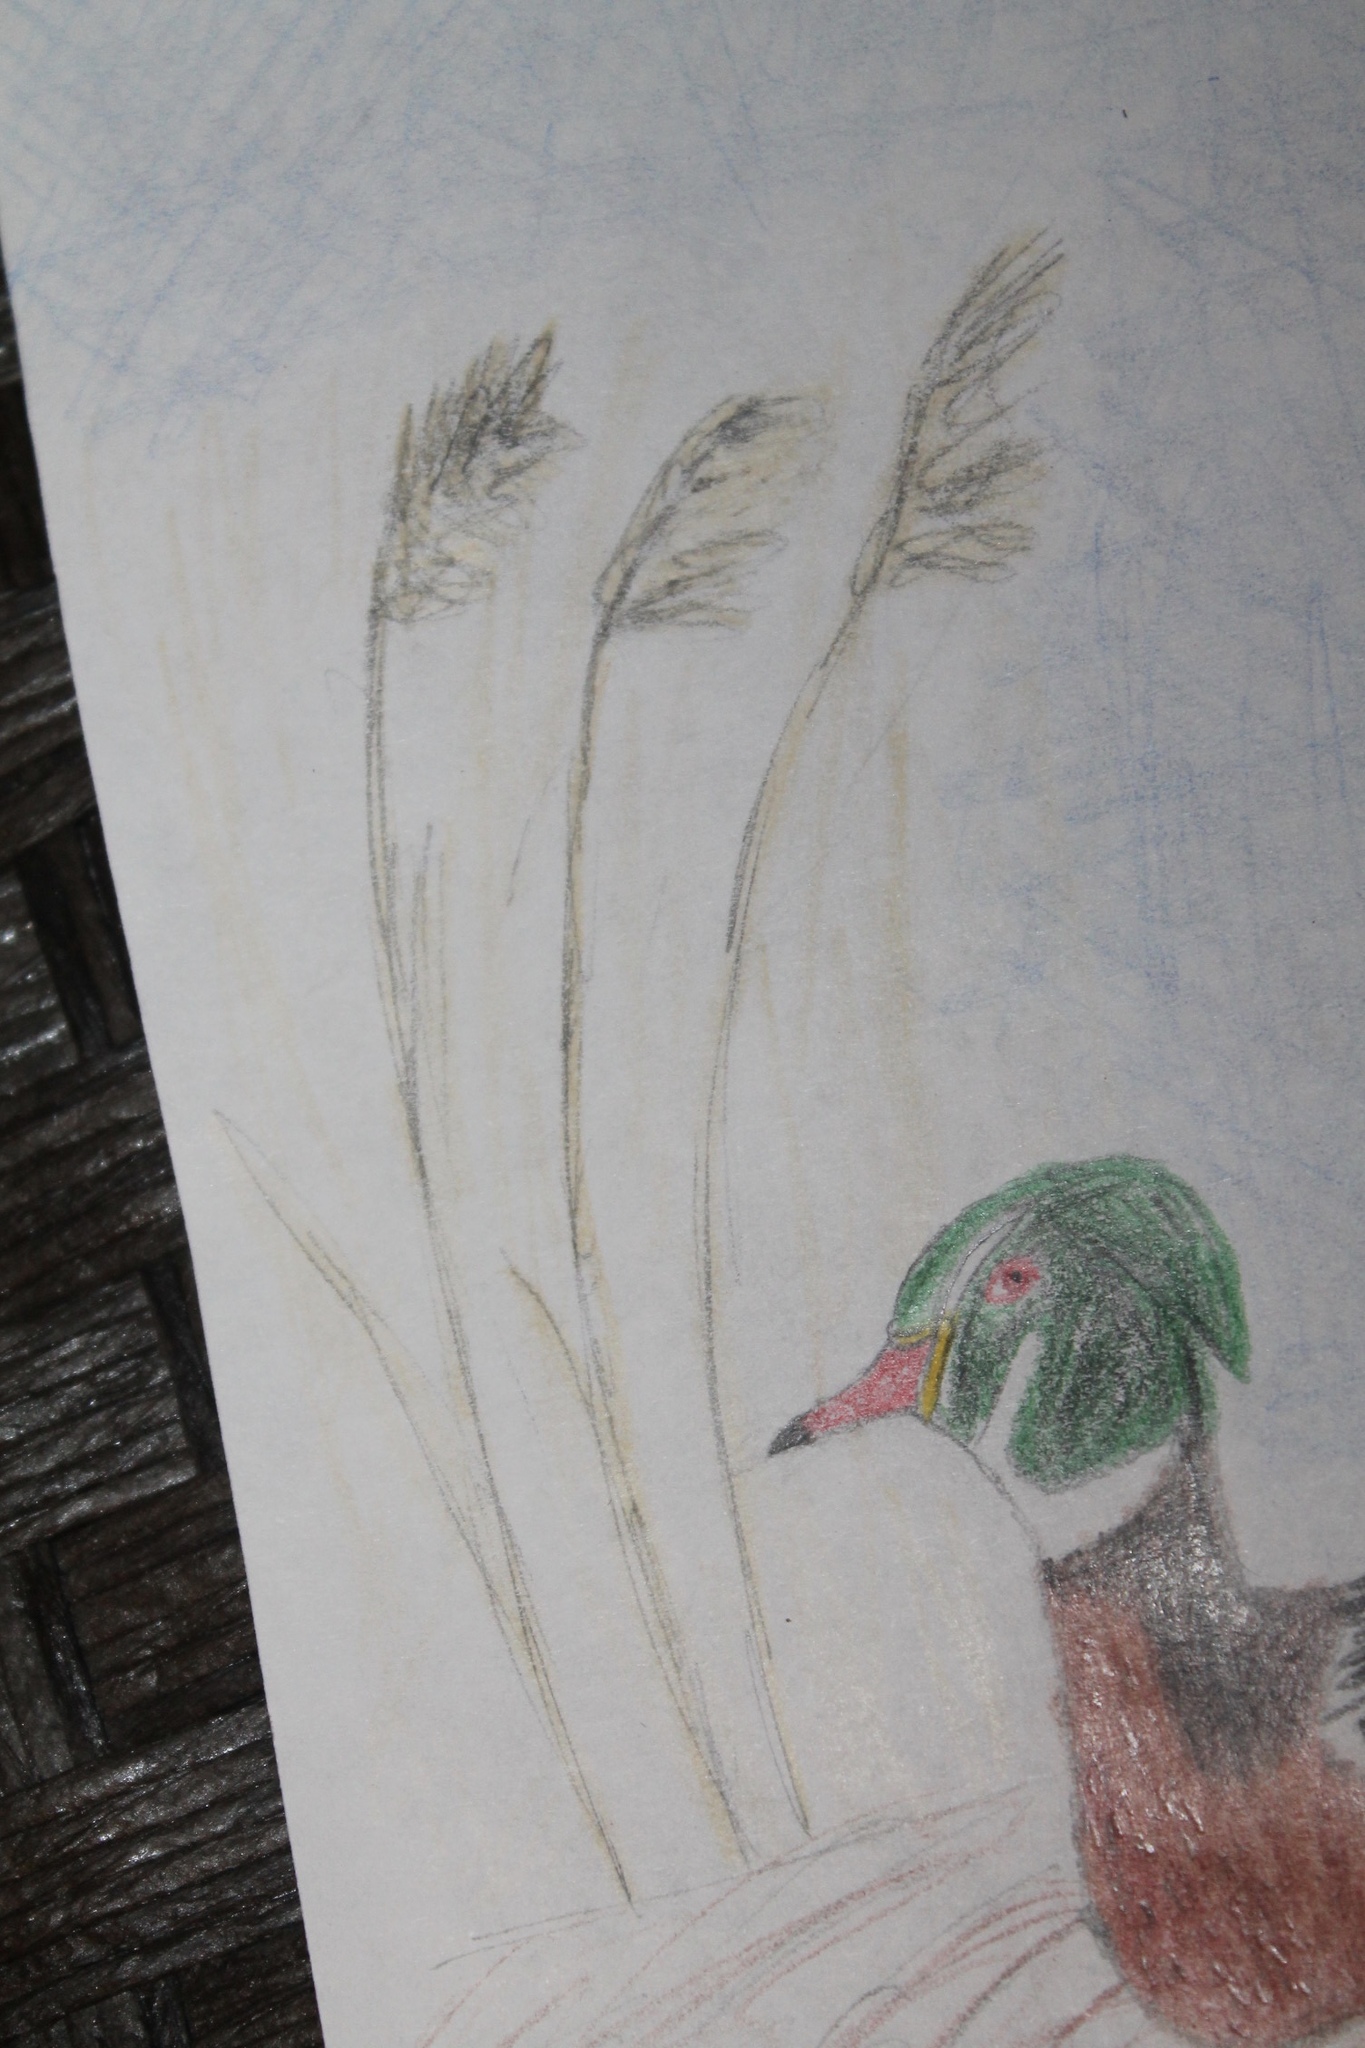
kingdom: Plantae
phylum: Tracheophyta
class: Liliopsida
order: Poales
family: Poaceae
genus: Phragmites
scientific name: Phragmites australis
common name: Common reed
